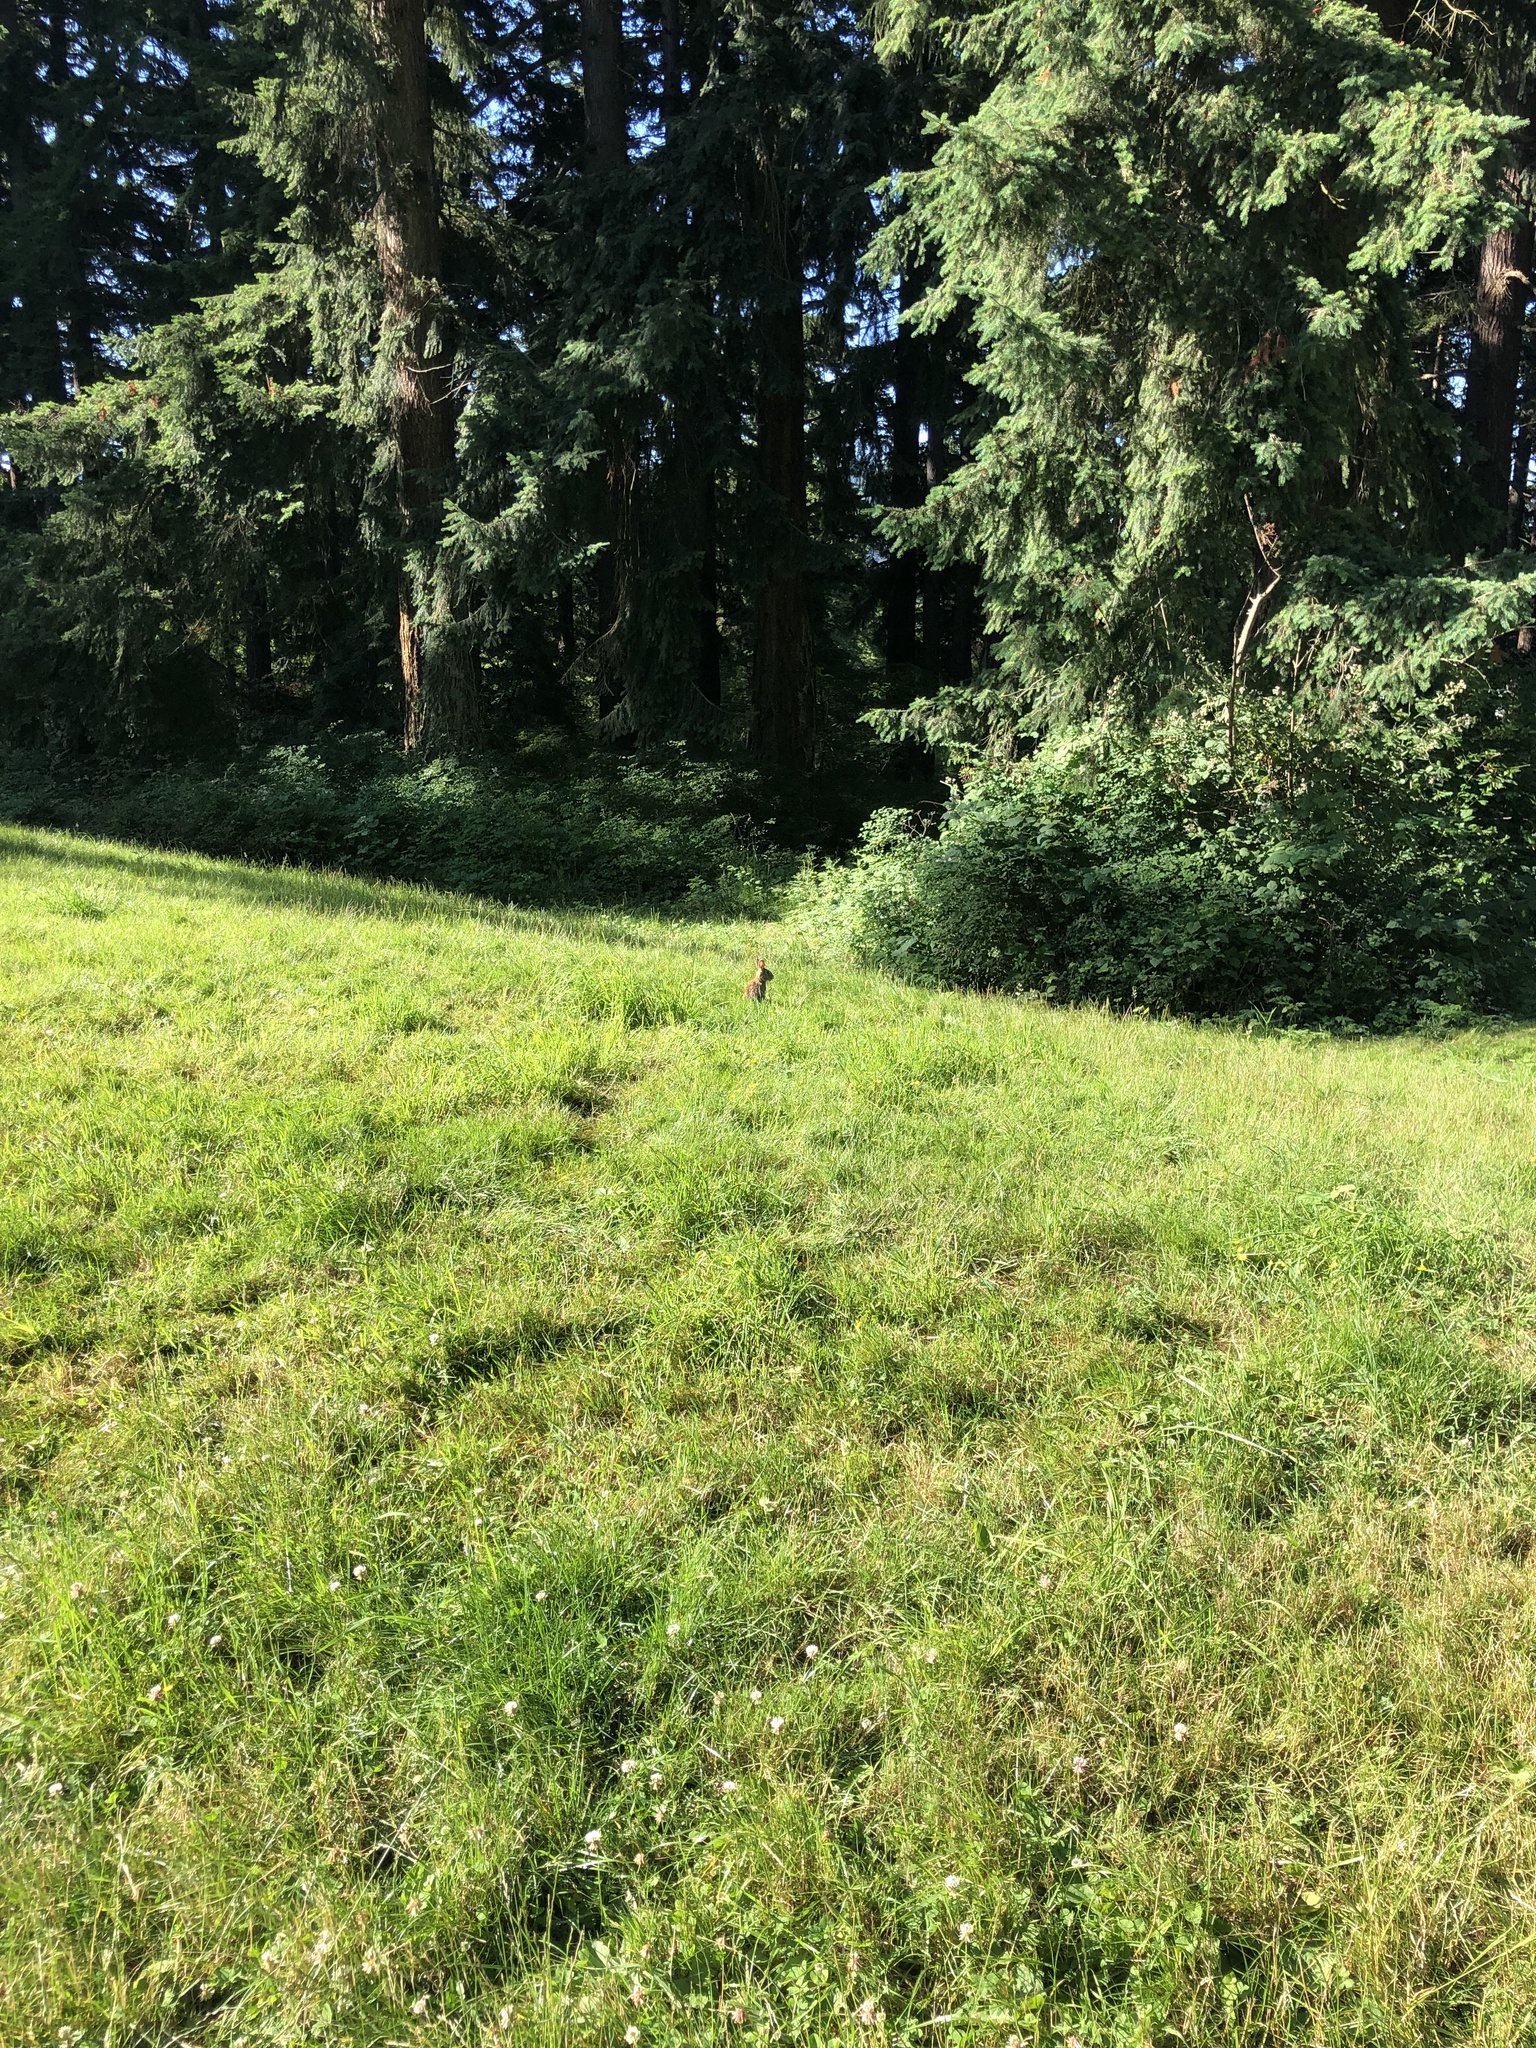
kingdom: Animalia
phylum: Chordata
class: Mammalia
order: Lagomorpha
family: Leporidae
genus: Sylvilagus
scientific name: Sylvilagus floridanus
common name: Eastern cottontail
